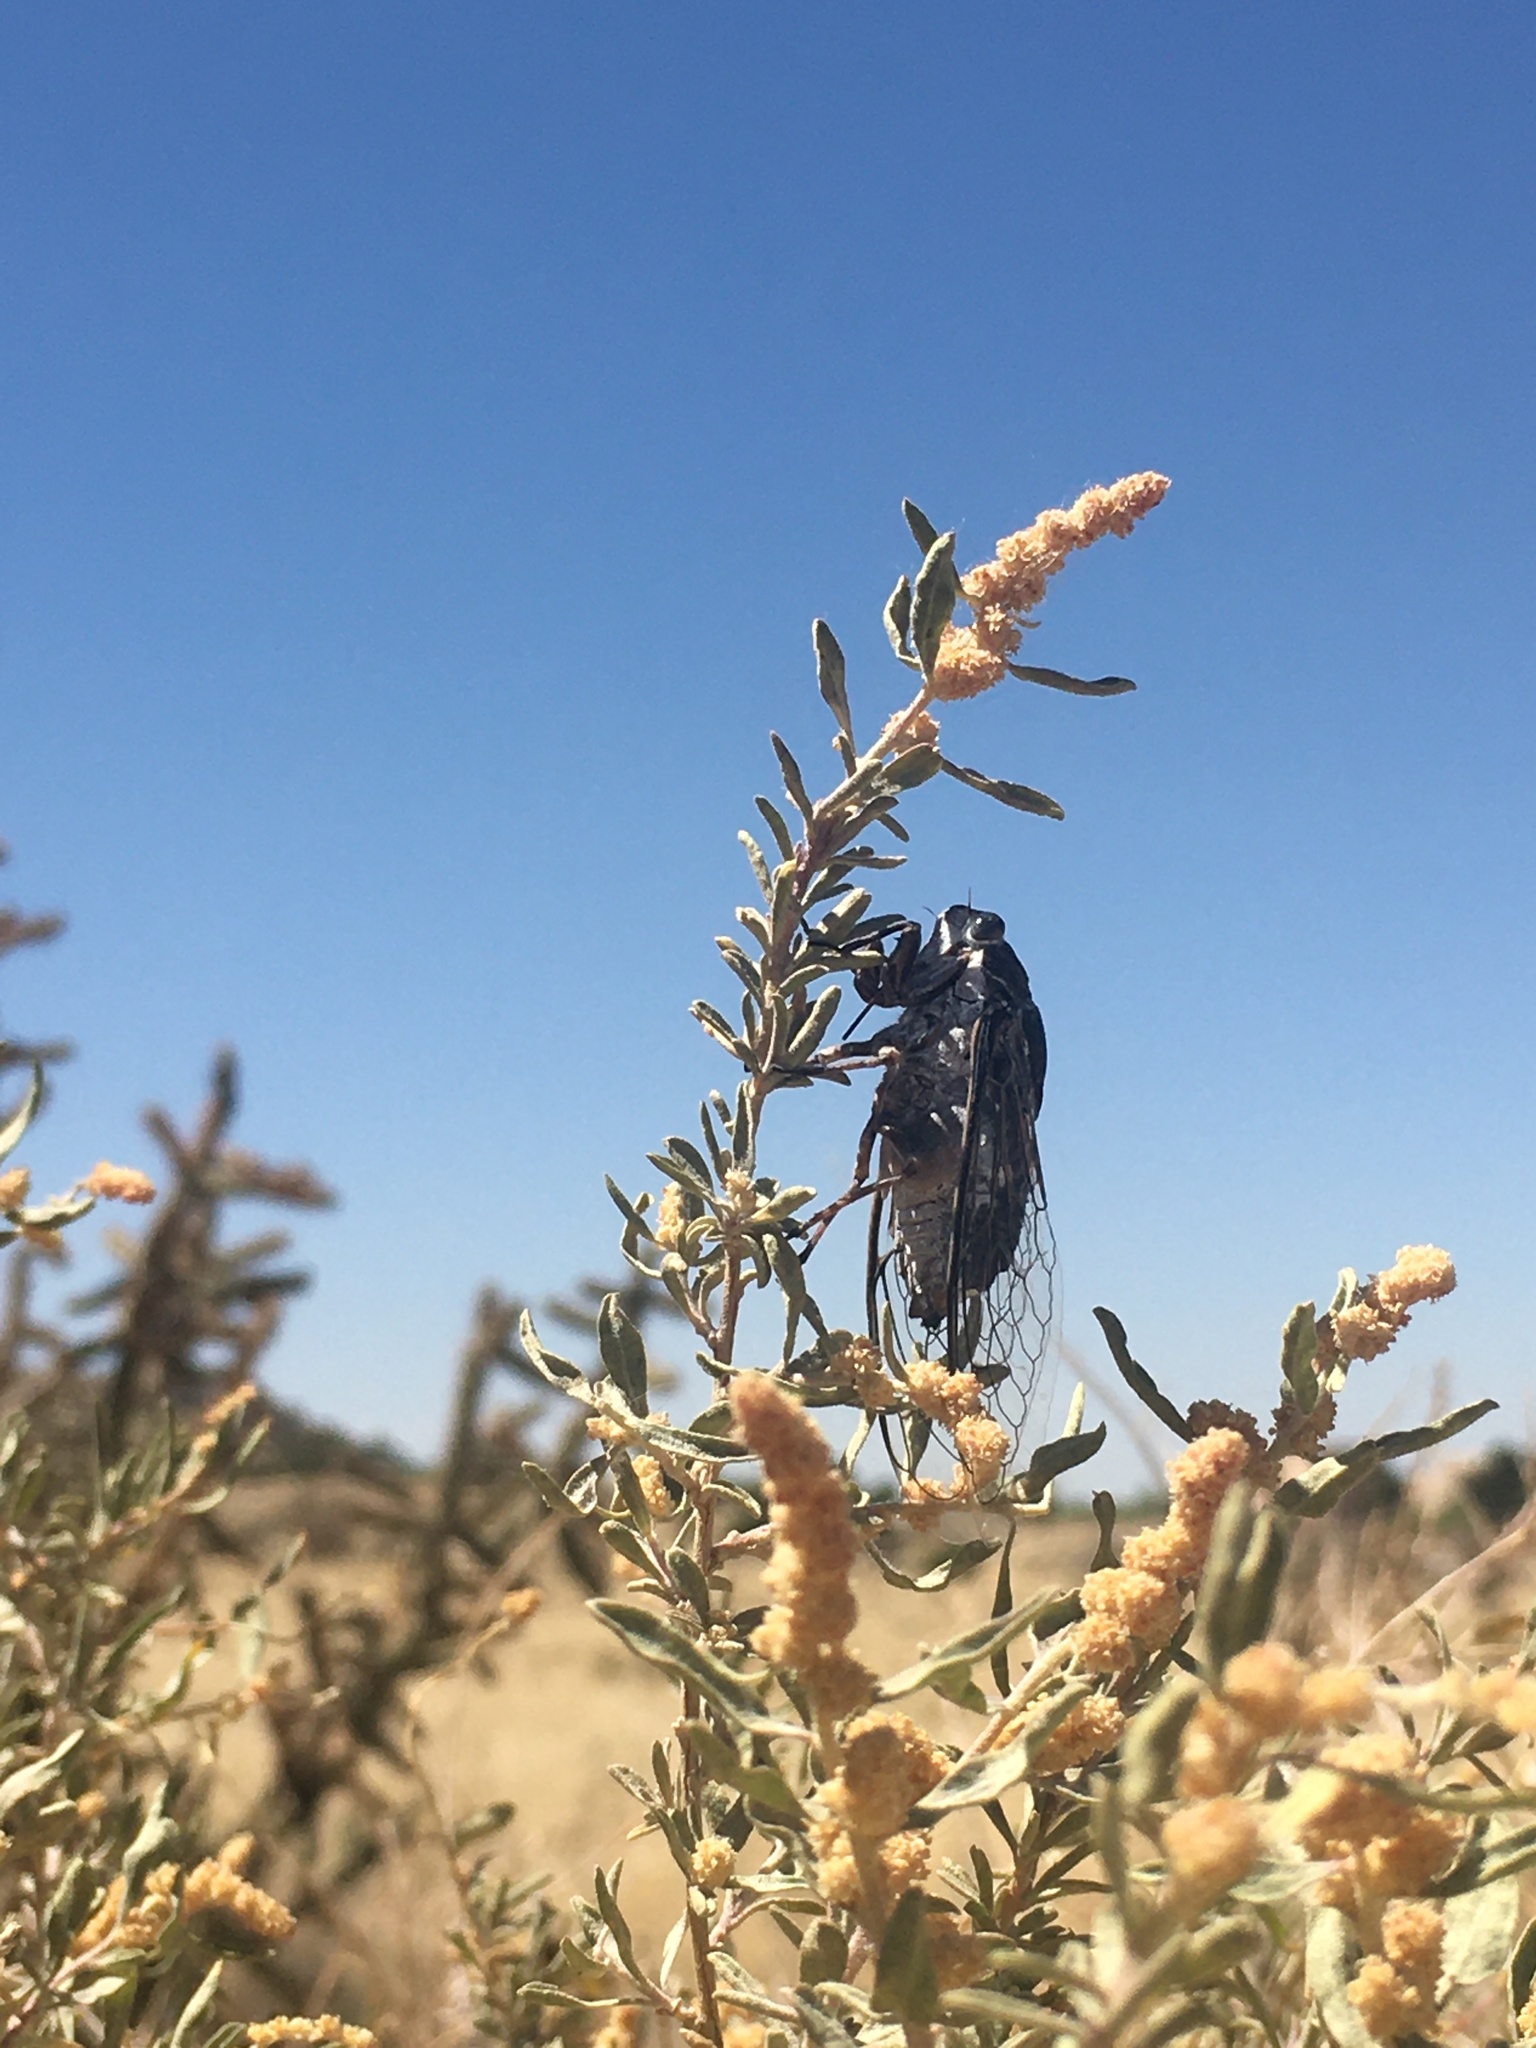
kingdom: Animalia
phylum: Arthropoda
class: Insecta
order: Hemiptera
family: Cicadidae
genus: Cacama
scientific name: Cacama valvata
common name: Cactus dodger
